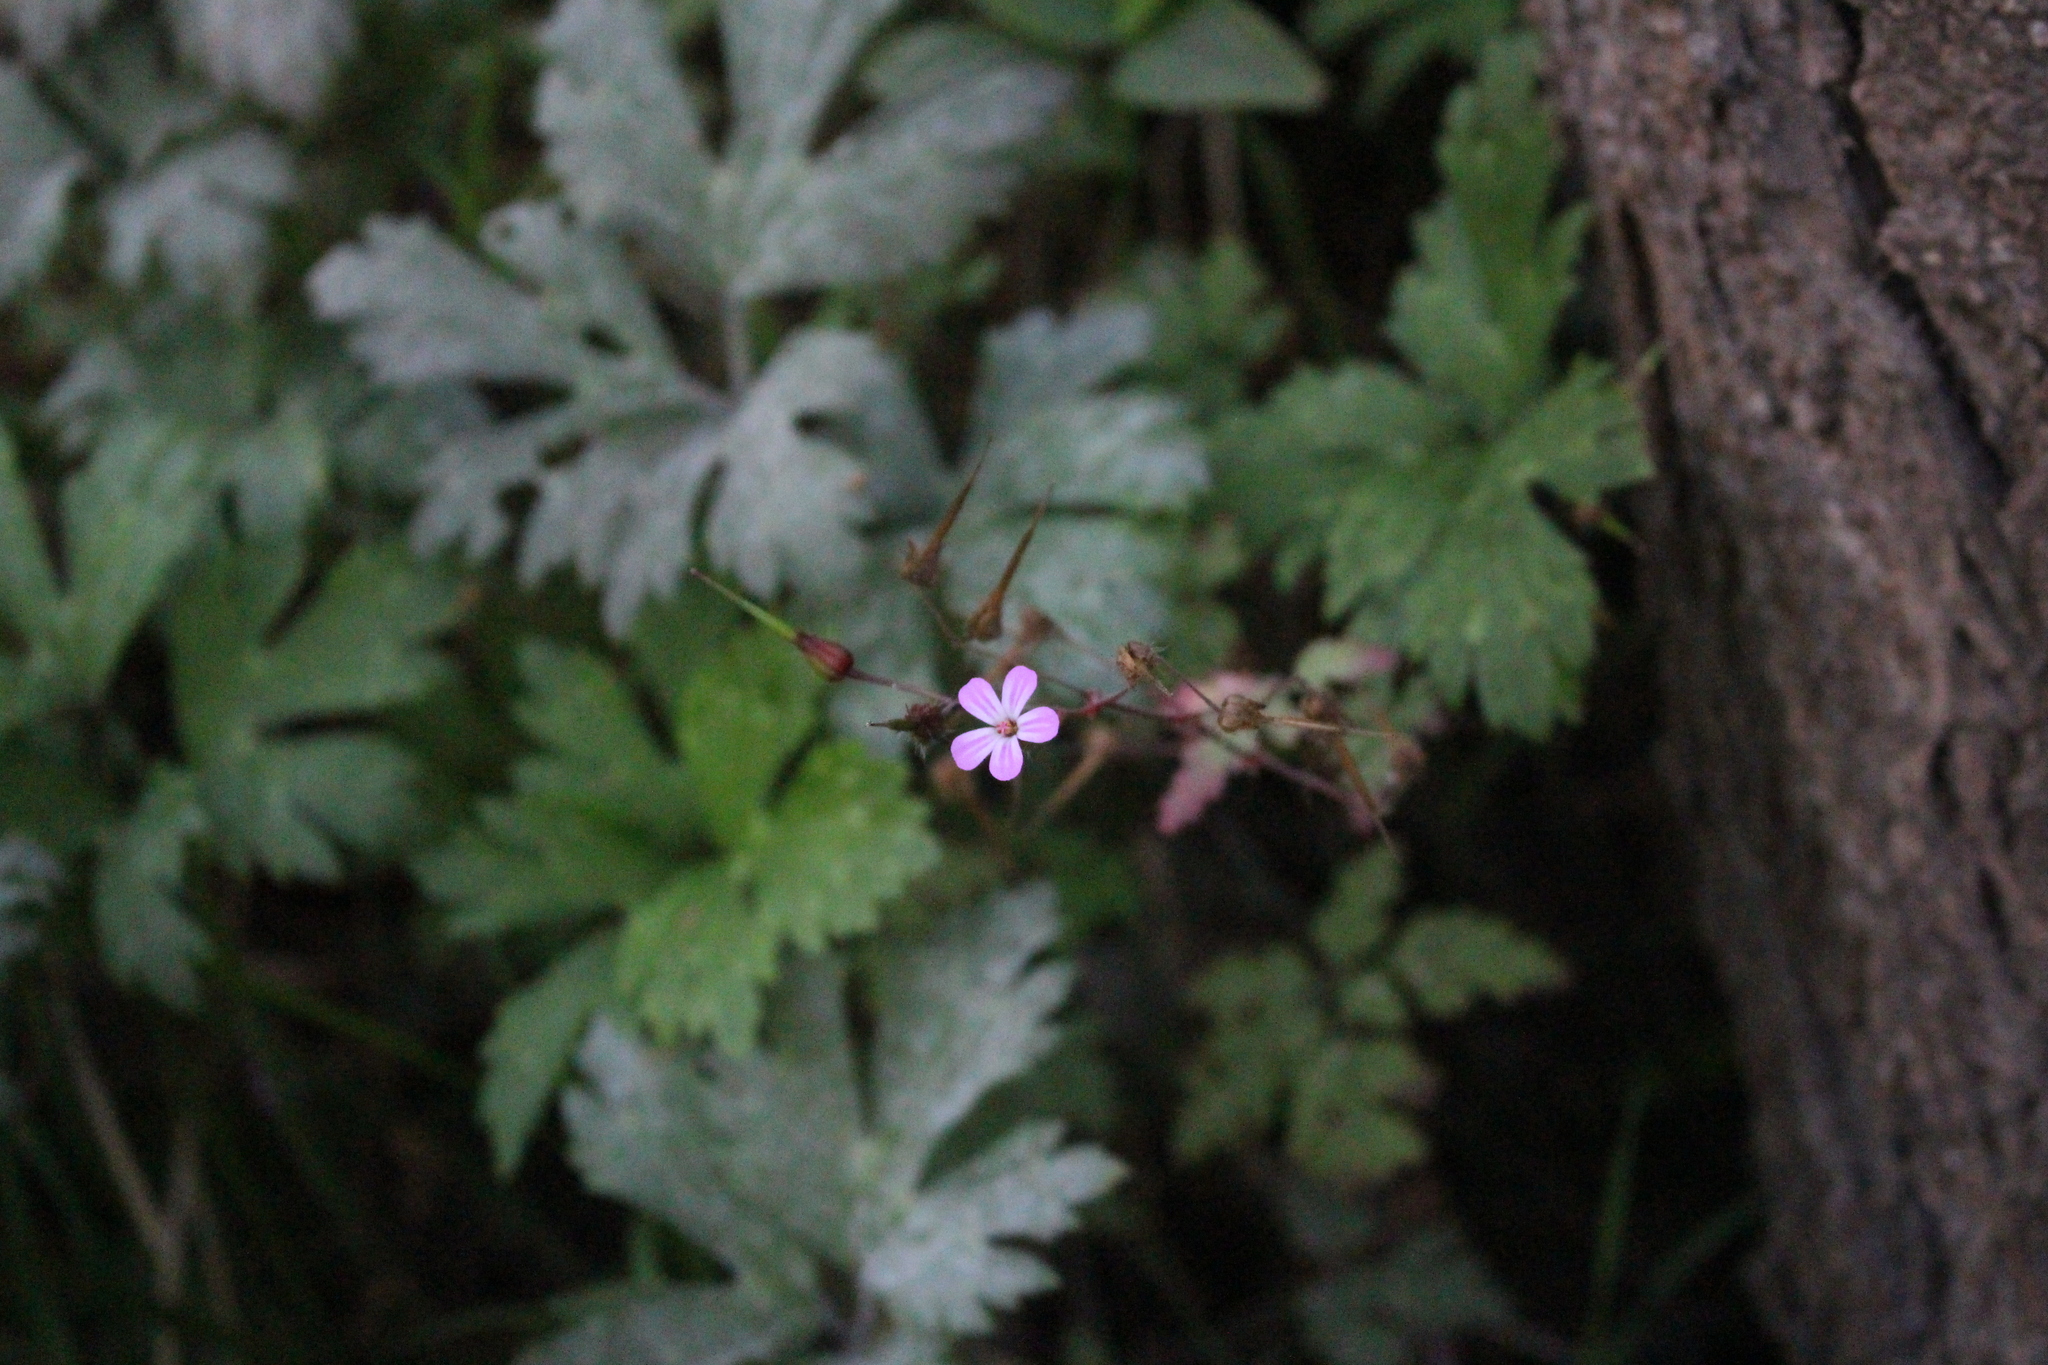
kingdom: Plantae
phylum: Tracheophyta
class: Magnoliopsida
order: Geraniales
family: Geraniaceae
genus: Geranium
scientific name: Geranium purpureum
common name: Little-robin
